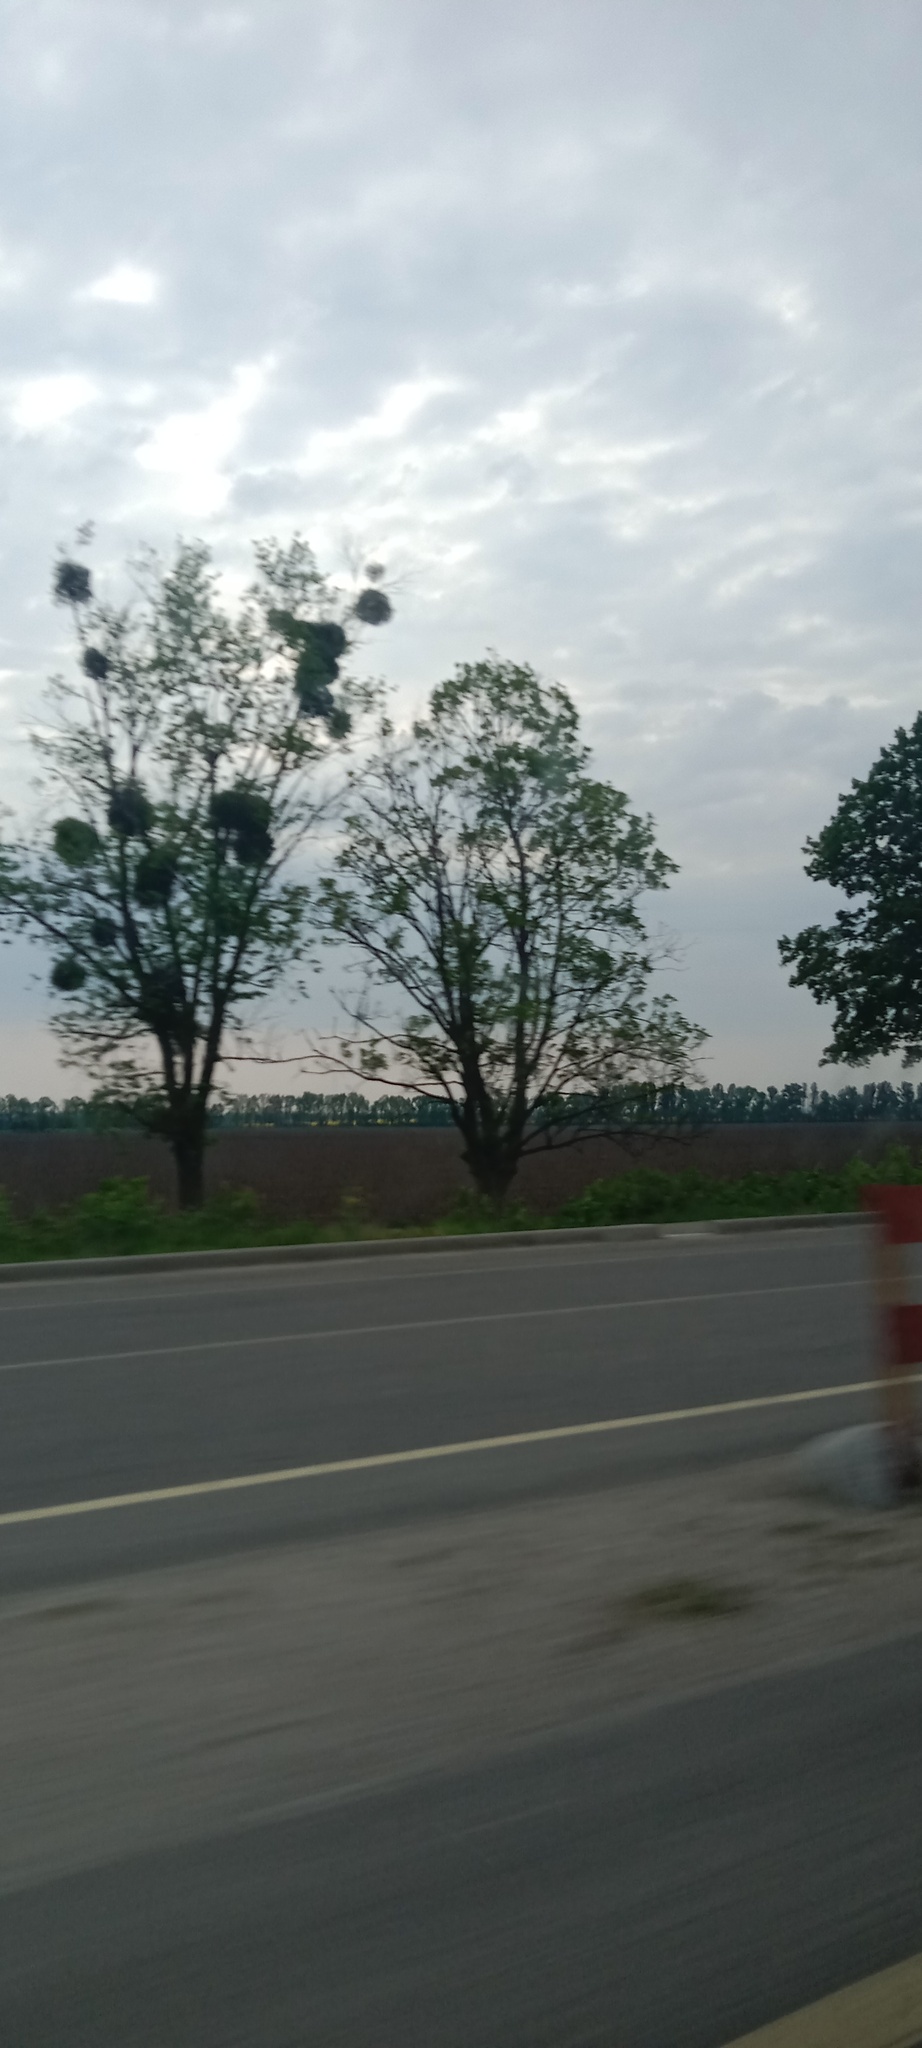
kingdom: Plantae
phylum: Tracheophyta
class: Magnoliopsida
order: Santalales
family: Viscaceae
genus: Viscum
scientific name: Viscum album
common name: Mistletoe
